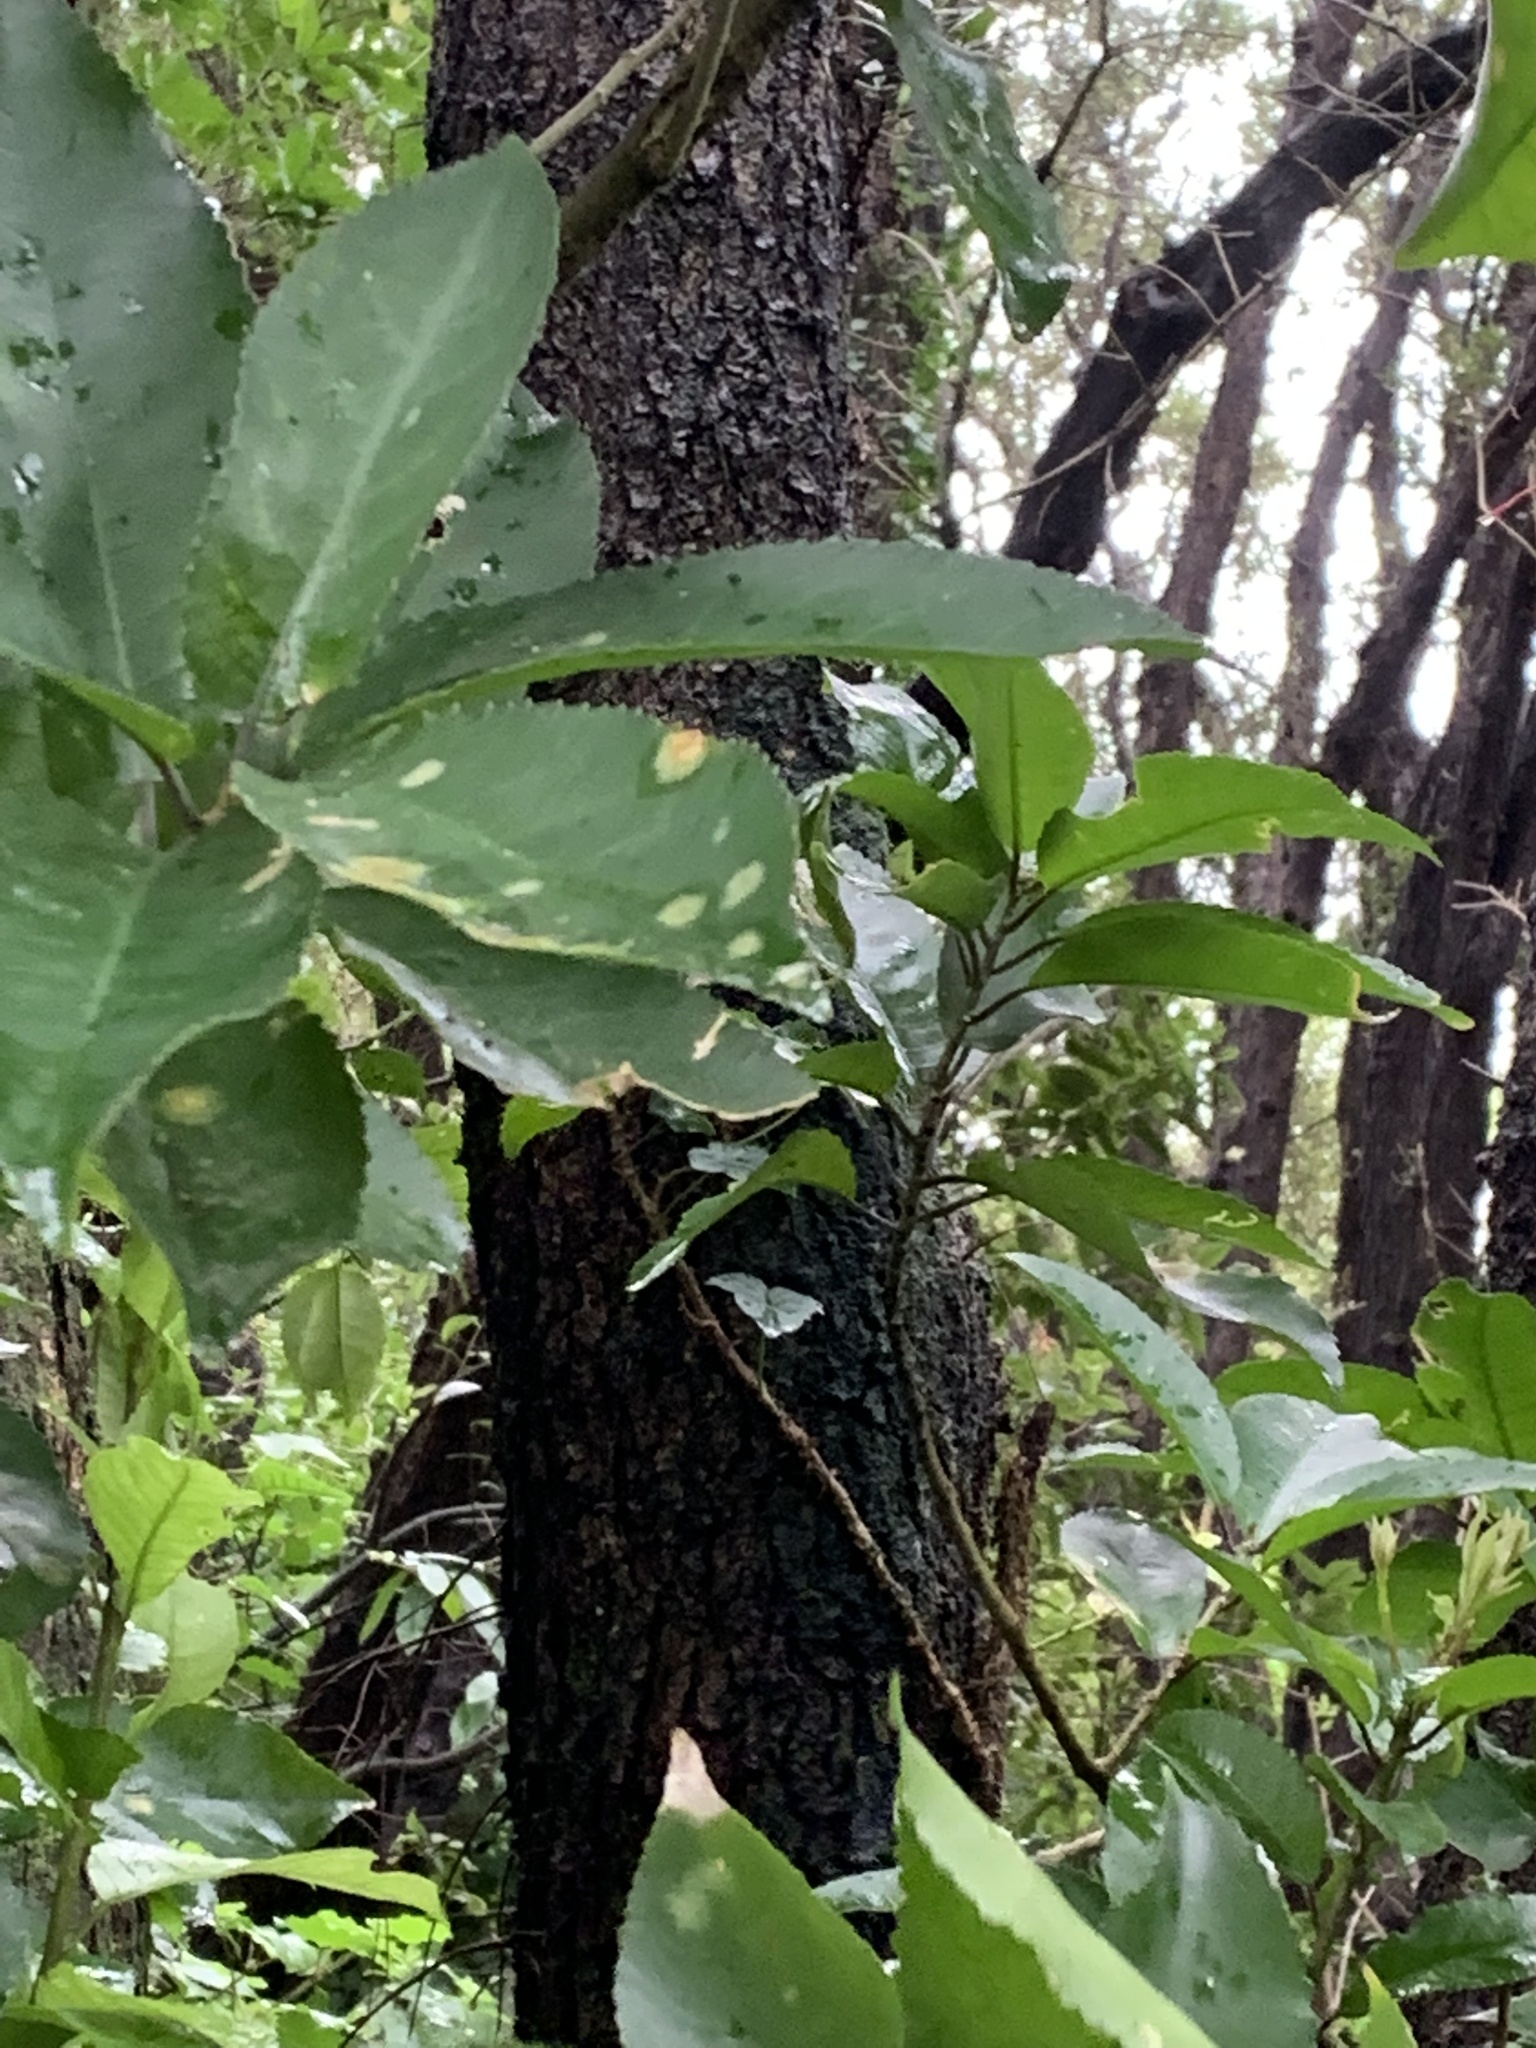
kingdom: Plantae
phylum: Chlorophyta
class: Ulvophyceae
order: Trentepohliales
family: Trentepohliaceae
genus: Cephaleuros
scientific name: Cephaleuros
